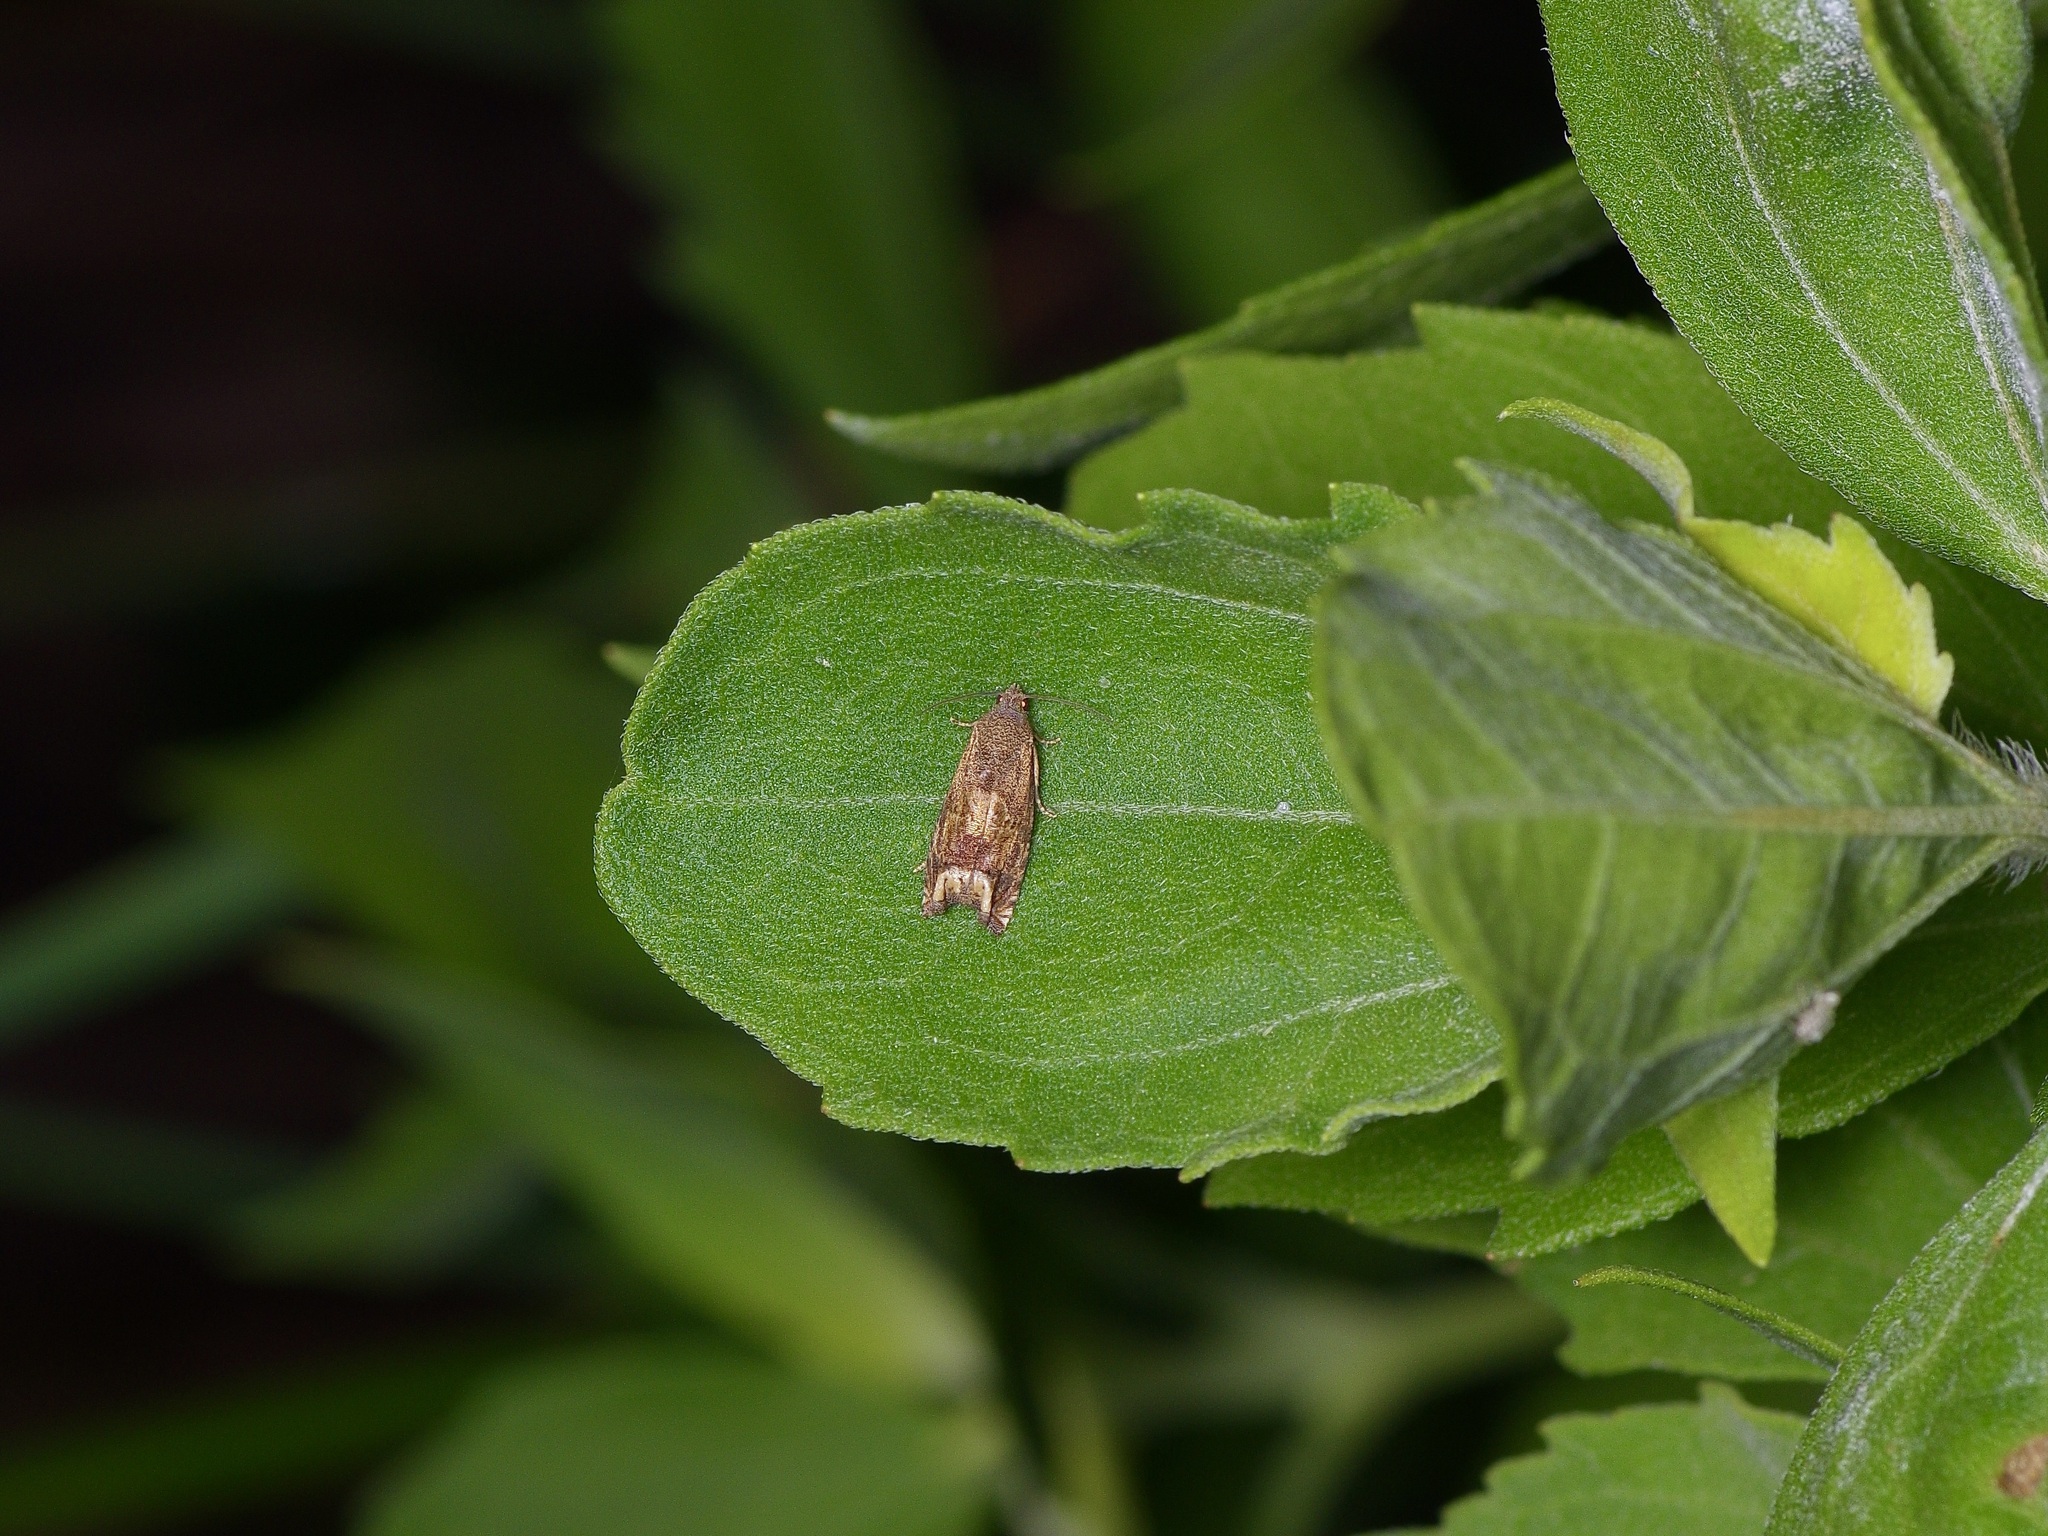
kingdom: Animalia
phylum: Arthropoda
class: Insecta
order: Lepidoptera
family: Tortricidae
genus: Epiblema
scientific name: Epiblema strenuana
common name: Ragweed borer moth
